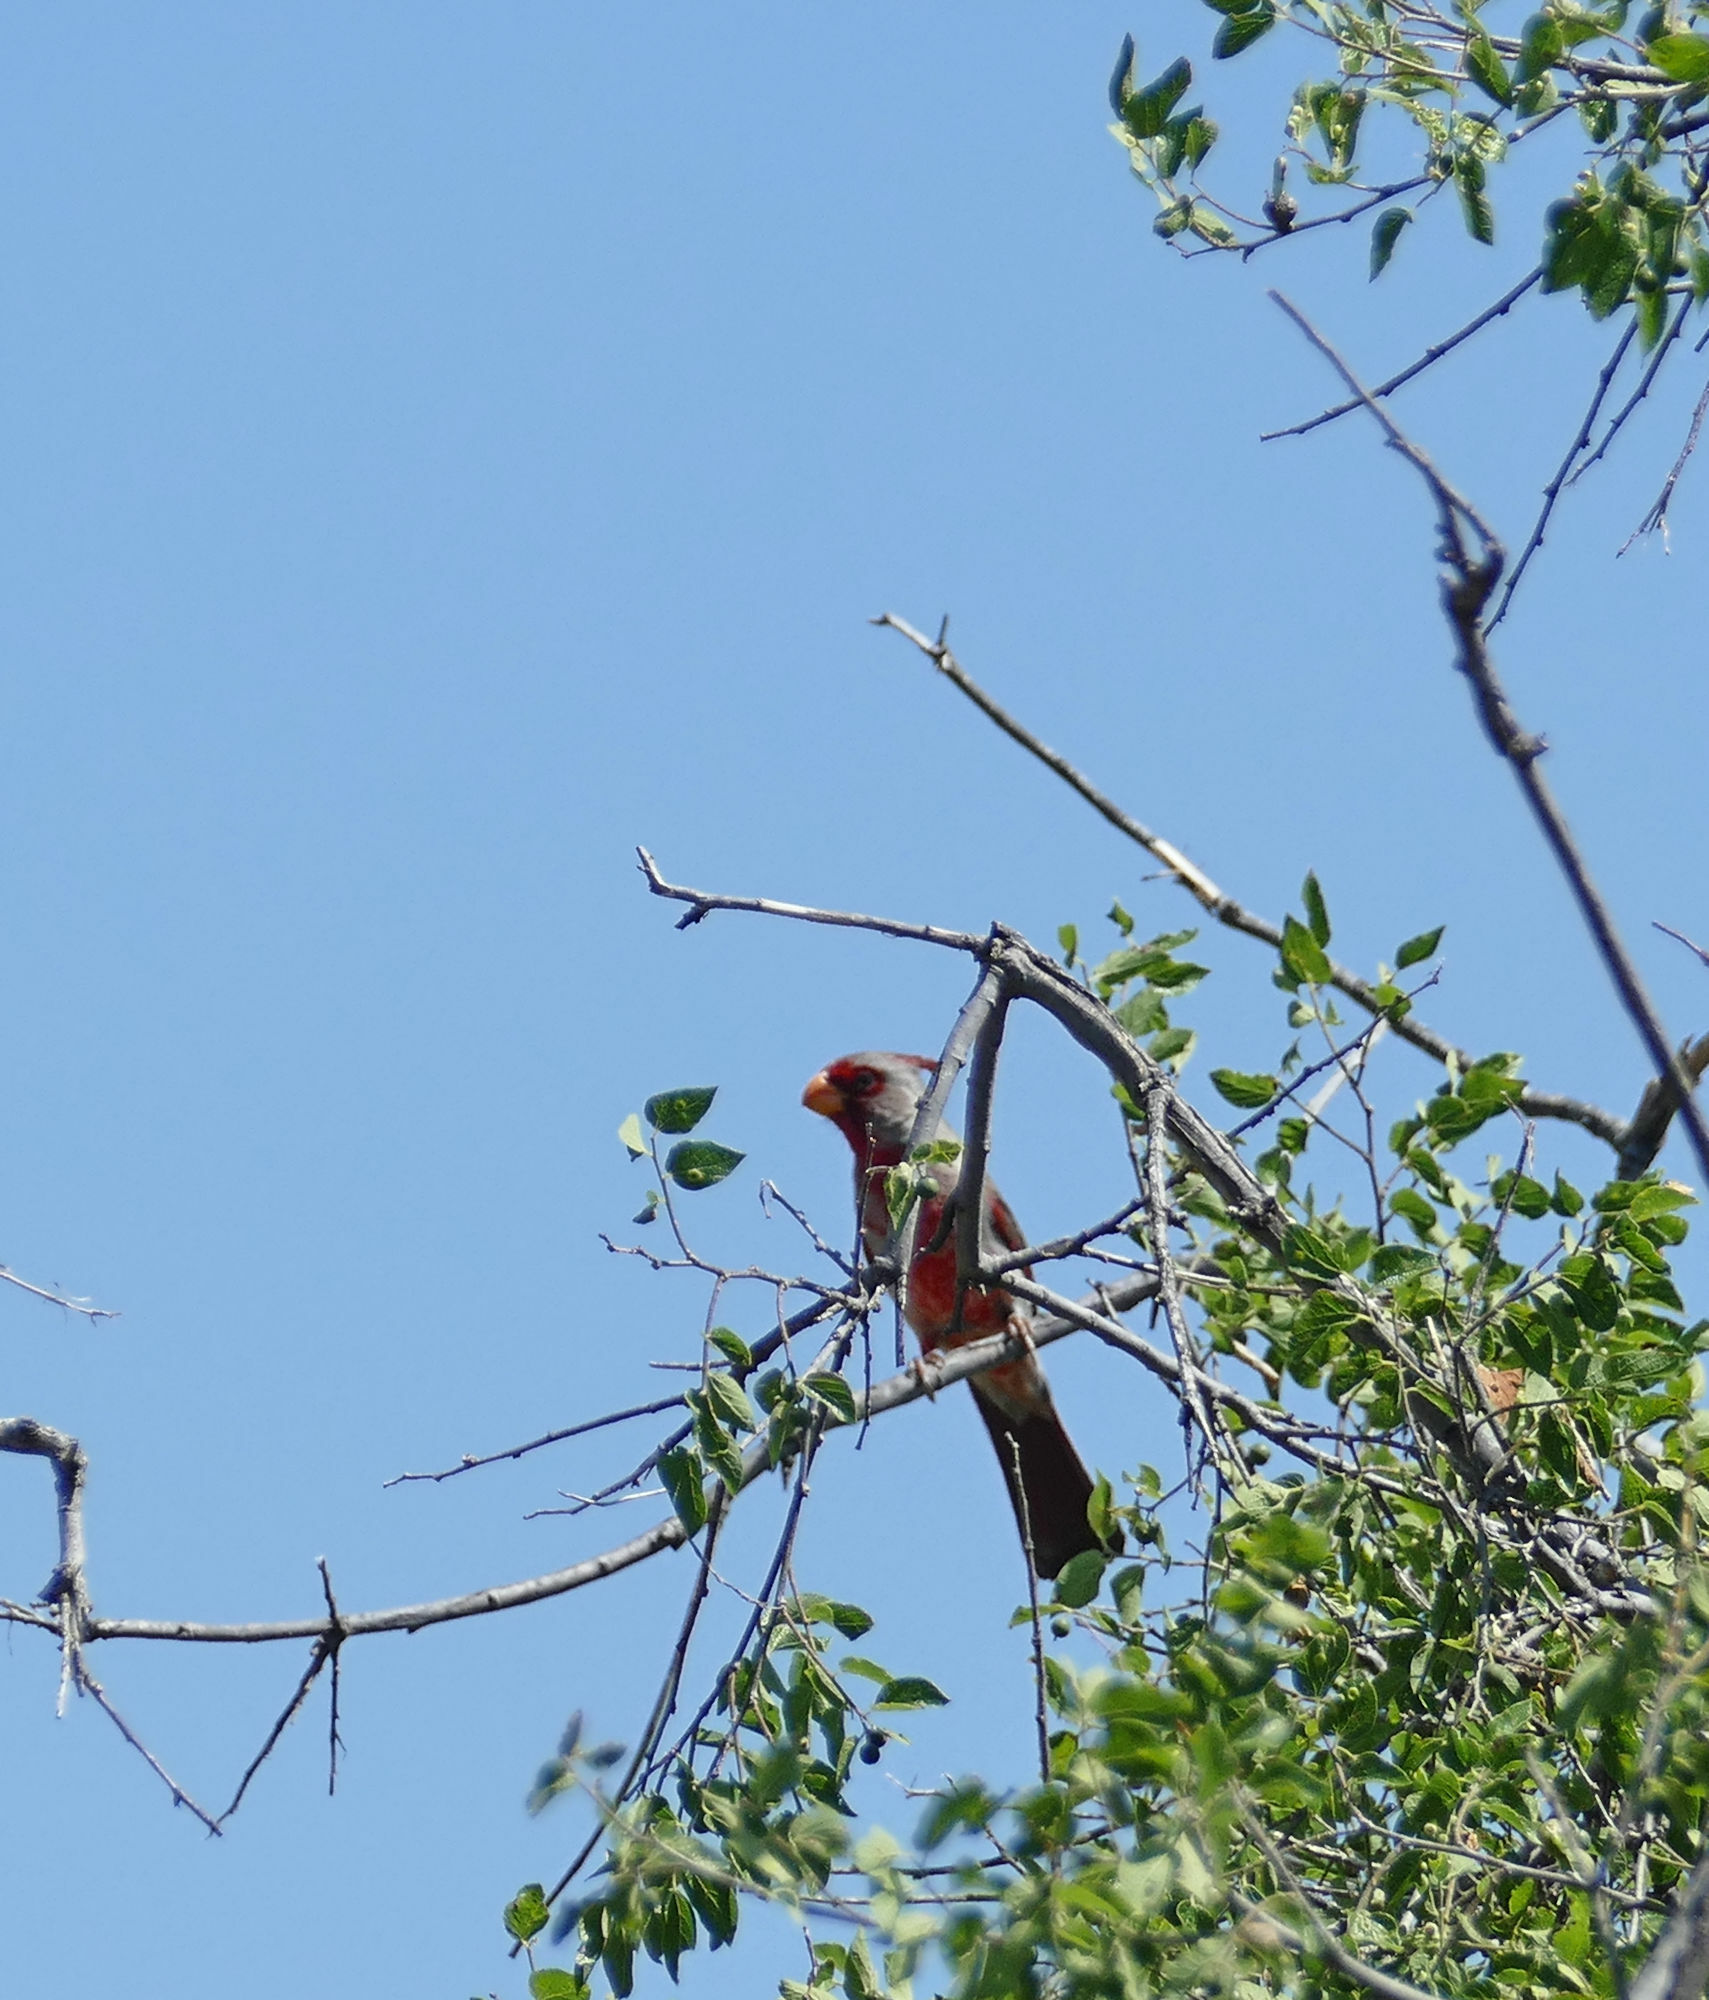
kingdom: Animalia
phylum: Chordata
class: Aves
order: Passeriformes
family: Cardinalidae
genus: Cardinalis
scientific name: Cardinalis sinuatus
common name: Pyrrhuloxia
